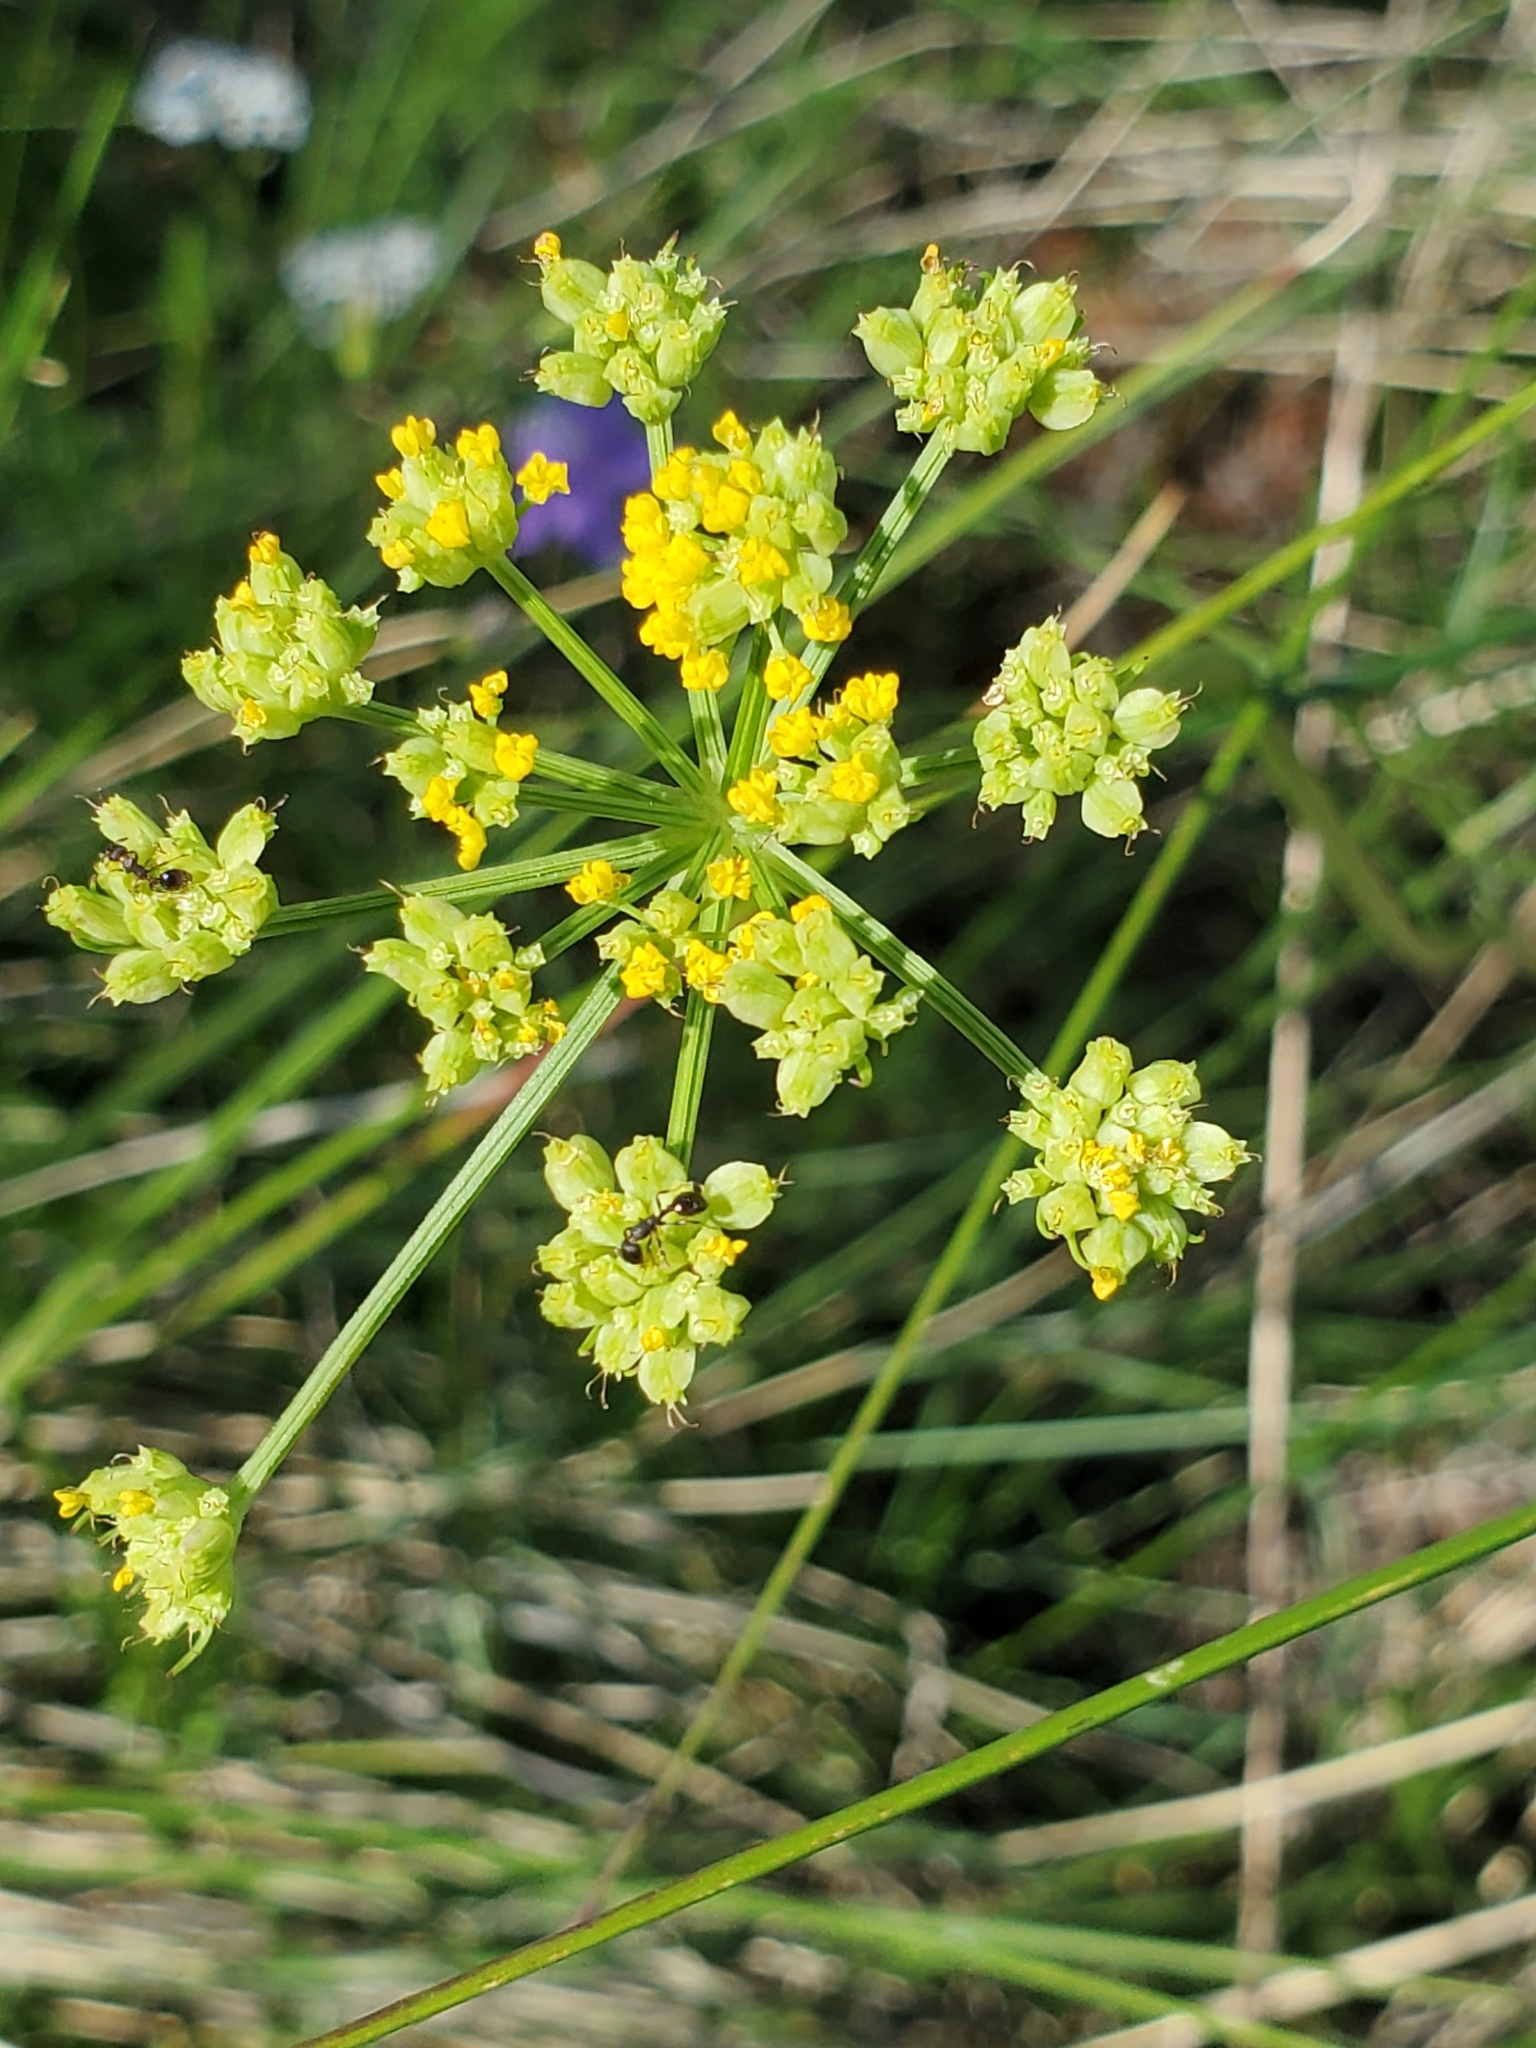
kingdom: Plantae
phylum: Tracheophyta
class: Magnoliopsida
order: Apiales
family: Apiaceae
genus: Cymopterus
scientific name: Cymopterus lemmonii
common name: Lemmon's spring-parsley
